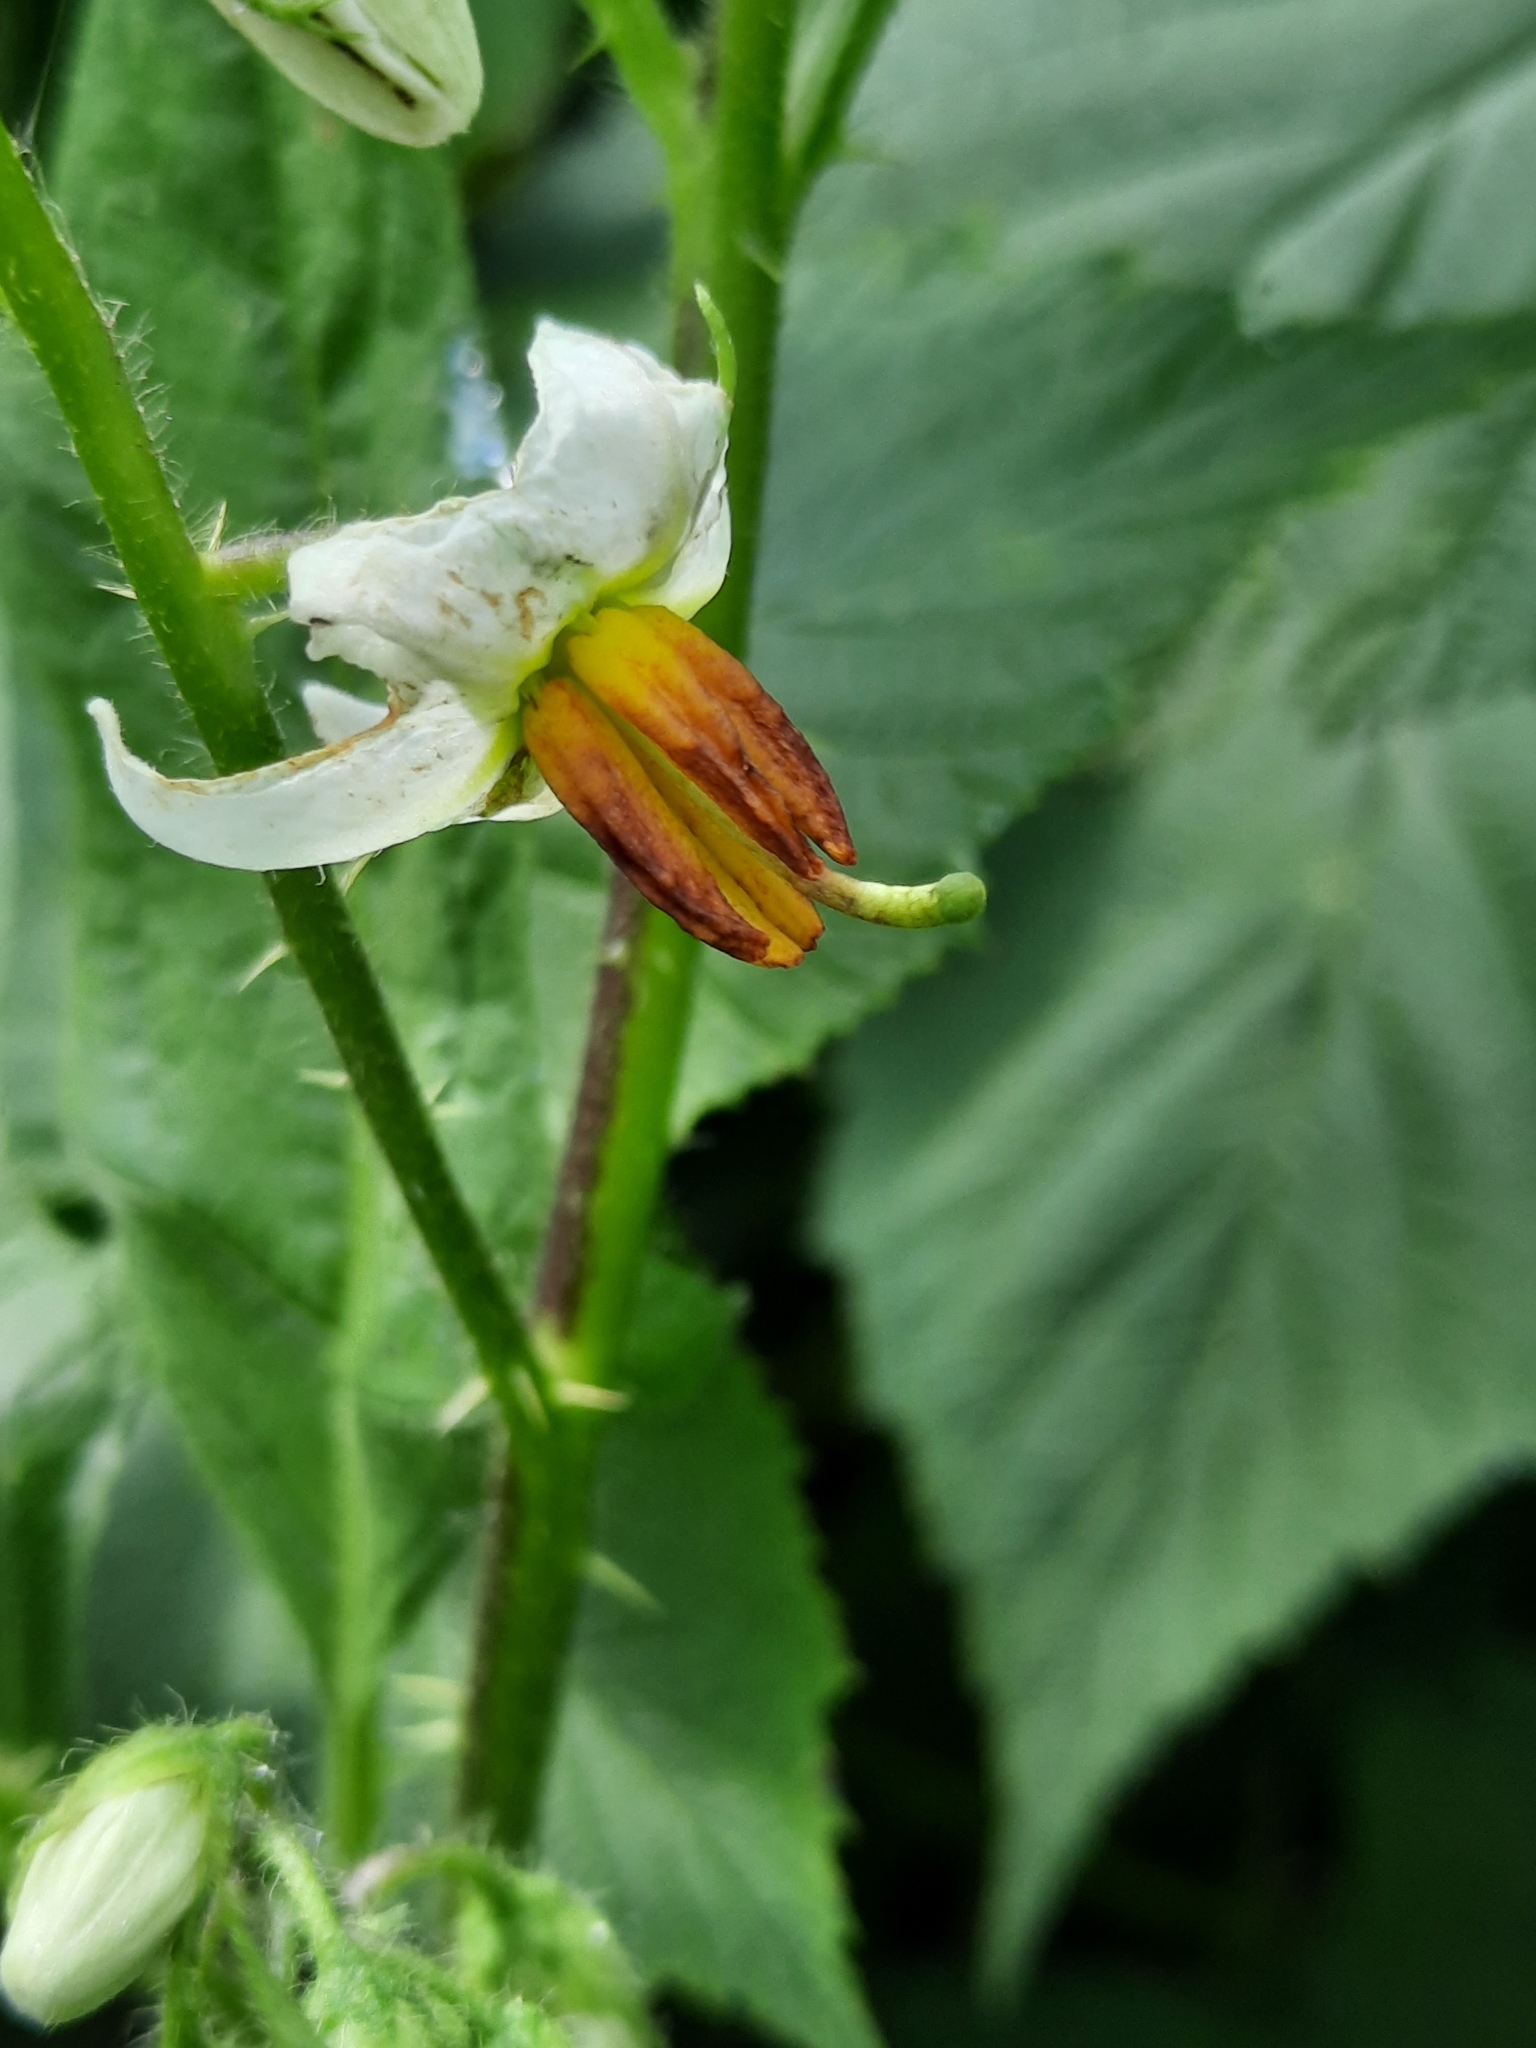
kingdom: Plantae
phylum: Tracheophyta
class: Magnoliopsida
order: Solanales
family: Solanaceae
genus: Solanum
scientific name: Solanum carolinense
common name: Horse-nettle
